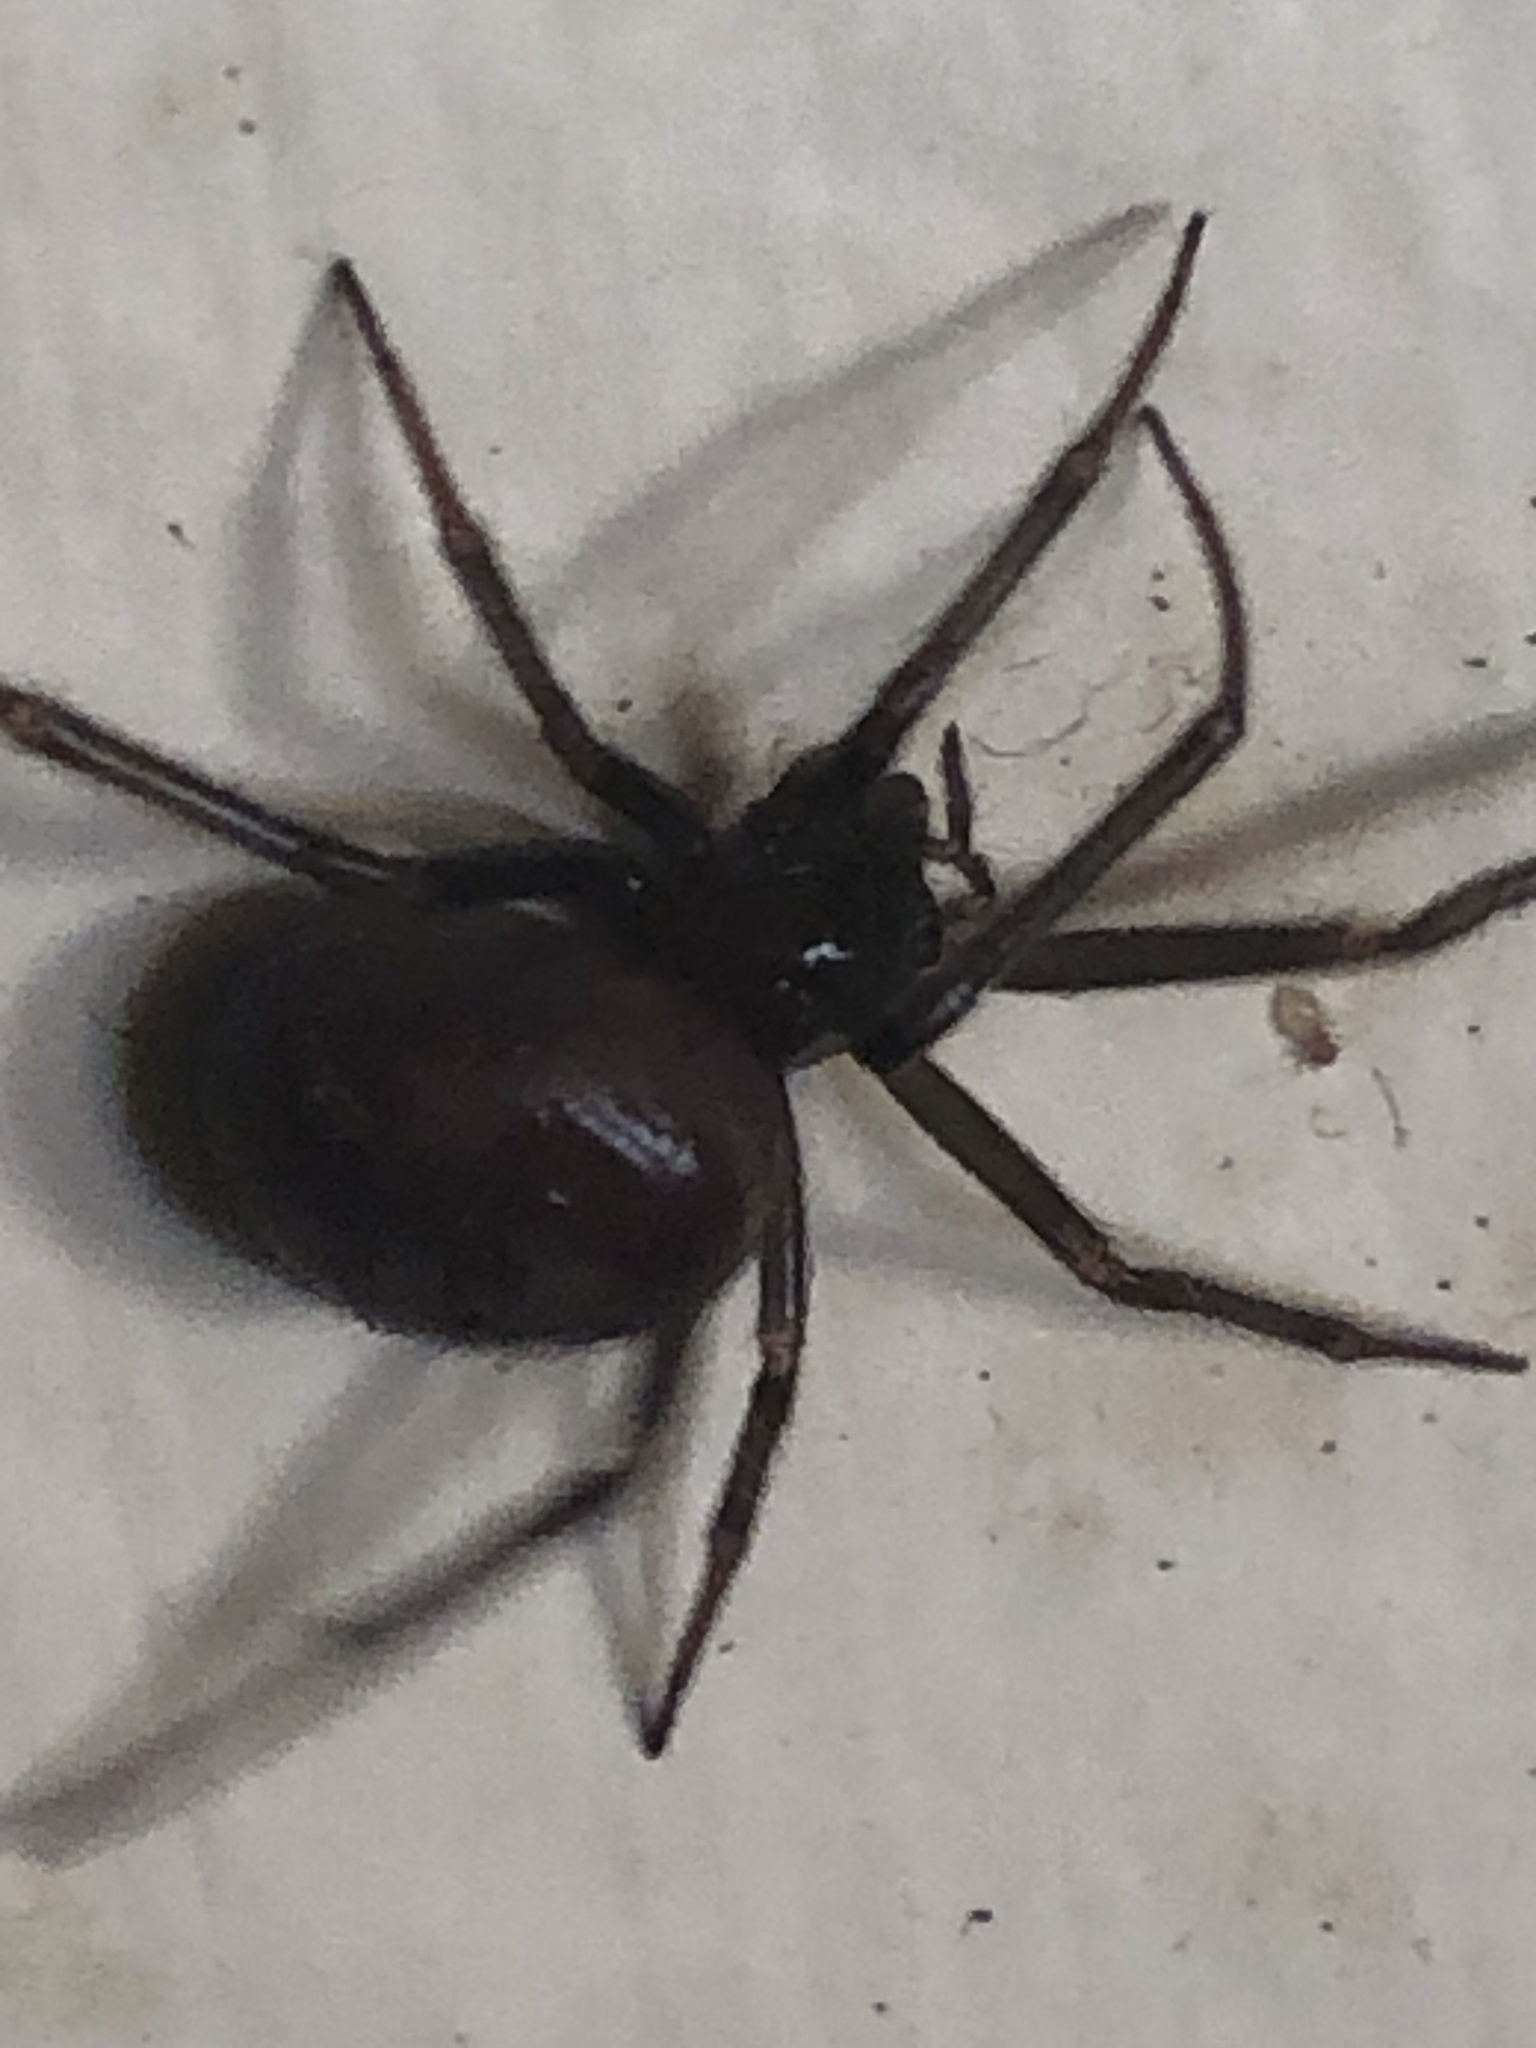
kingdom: Animalia
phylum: Arthropoda
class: Arachnida
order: Araneae
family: Theridiidae
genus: Steatoda
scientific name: Steatoda grossa
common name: False black widow
